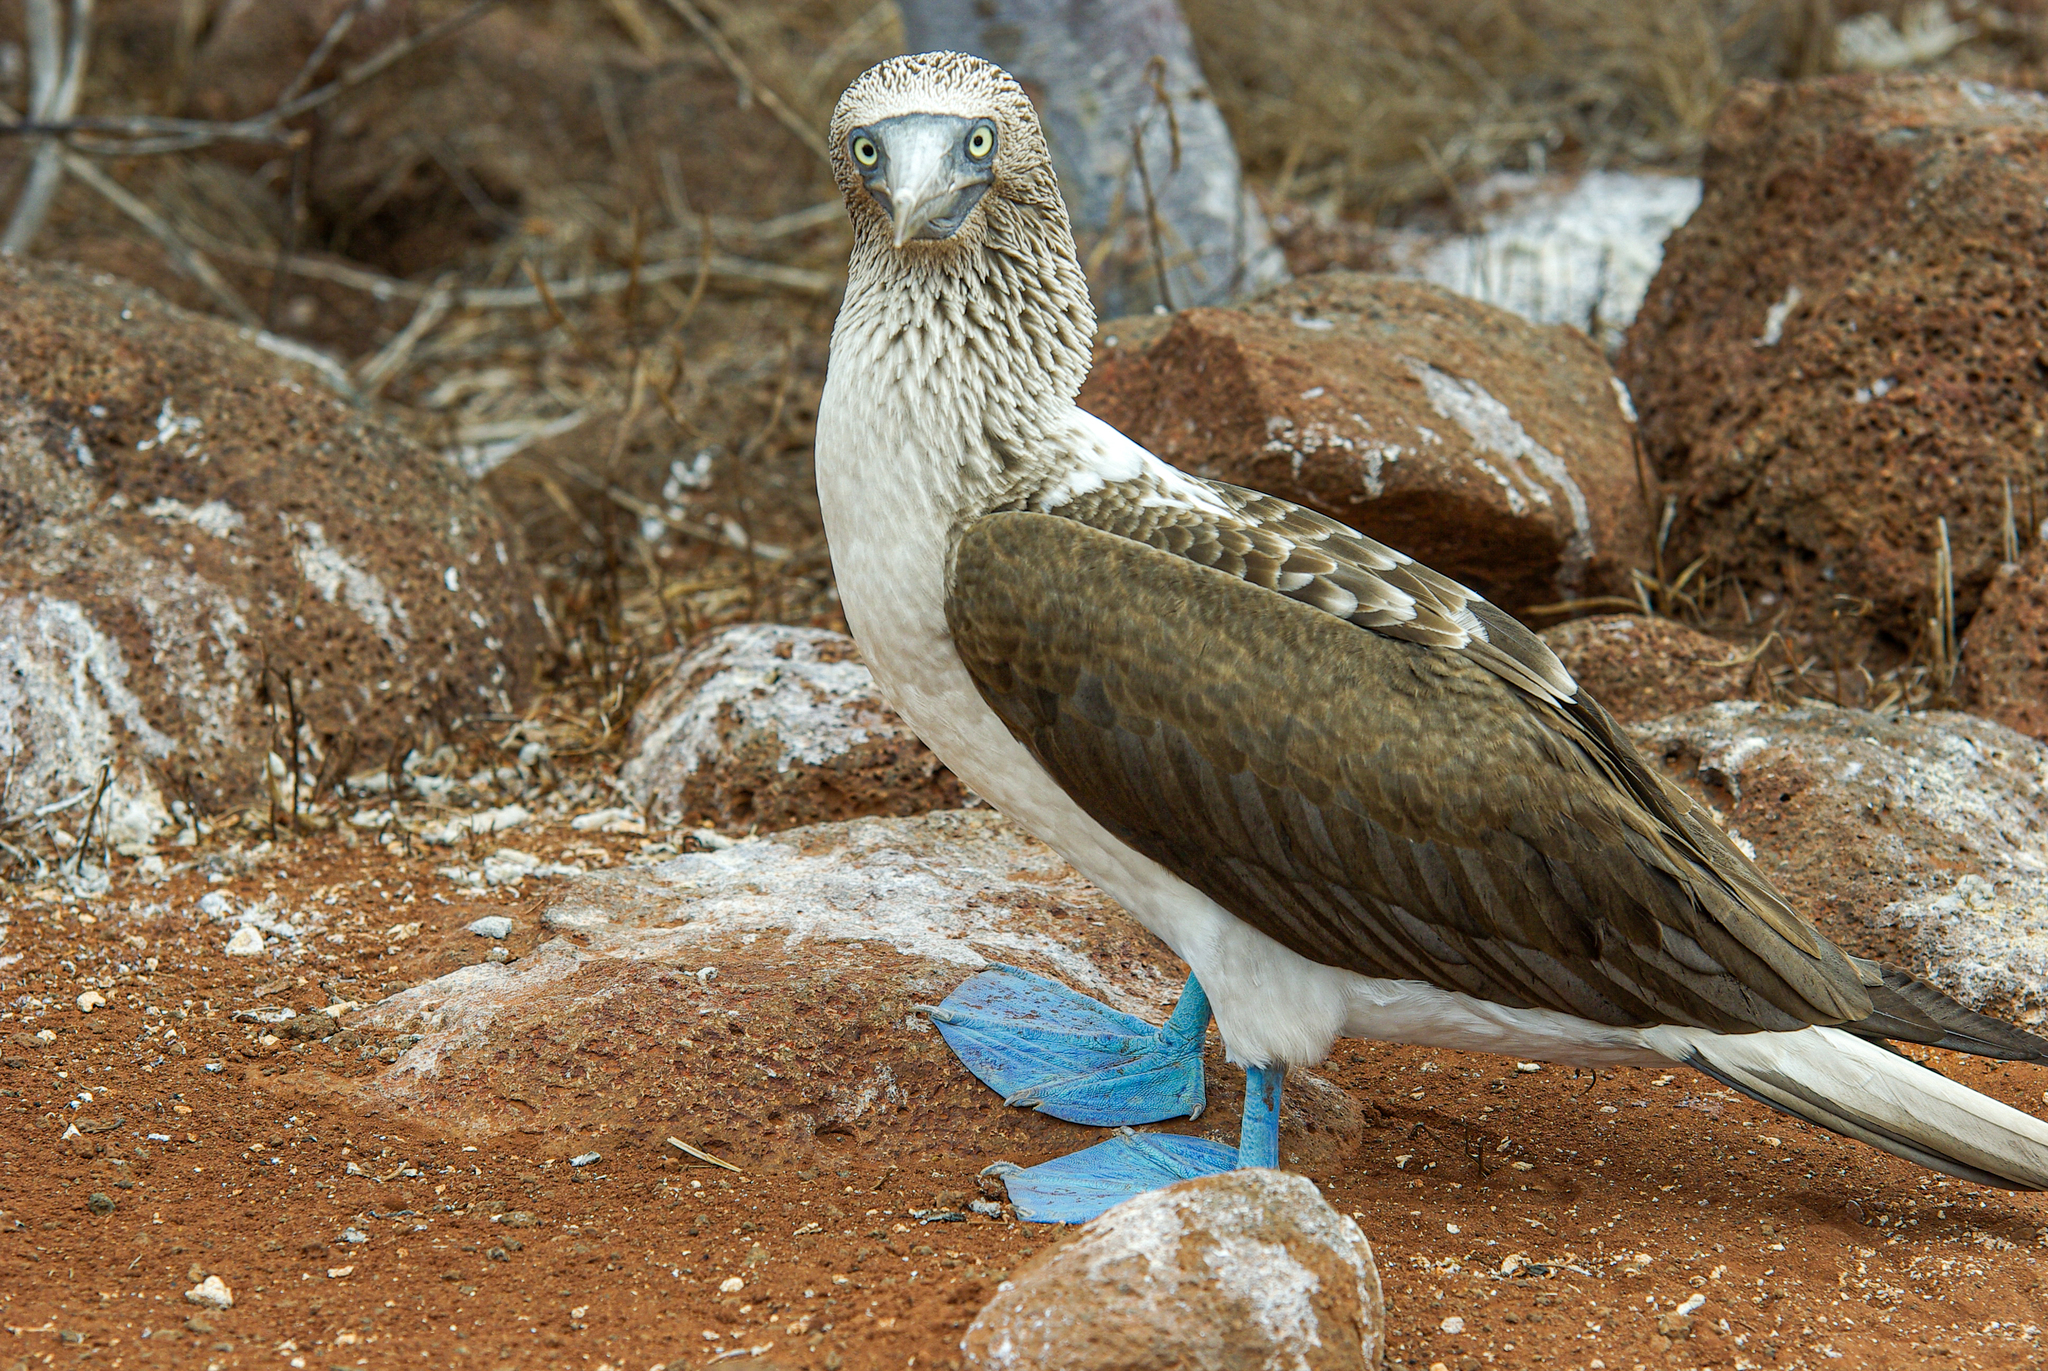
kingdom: Animalia
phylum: Chordata
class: Aves
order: Suliformes
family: Sulidae
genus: Sula
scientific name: Sula nebouxii
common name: Blue-footed booby
